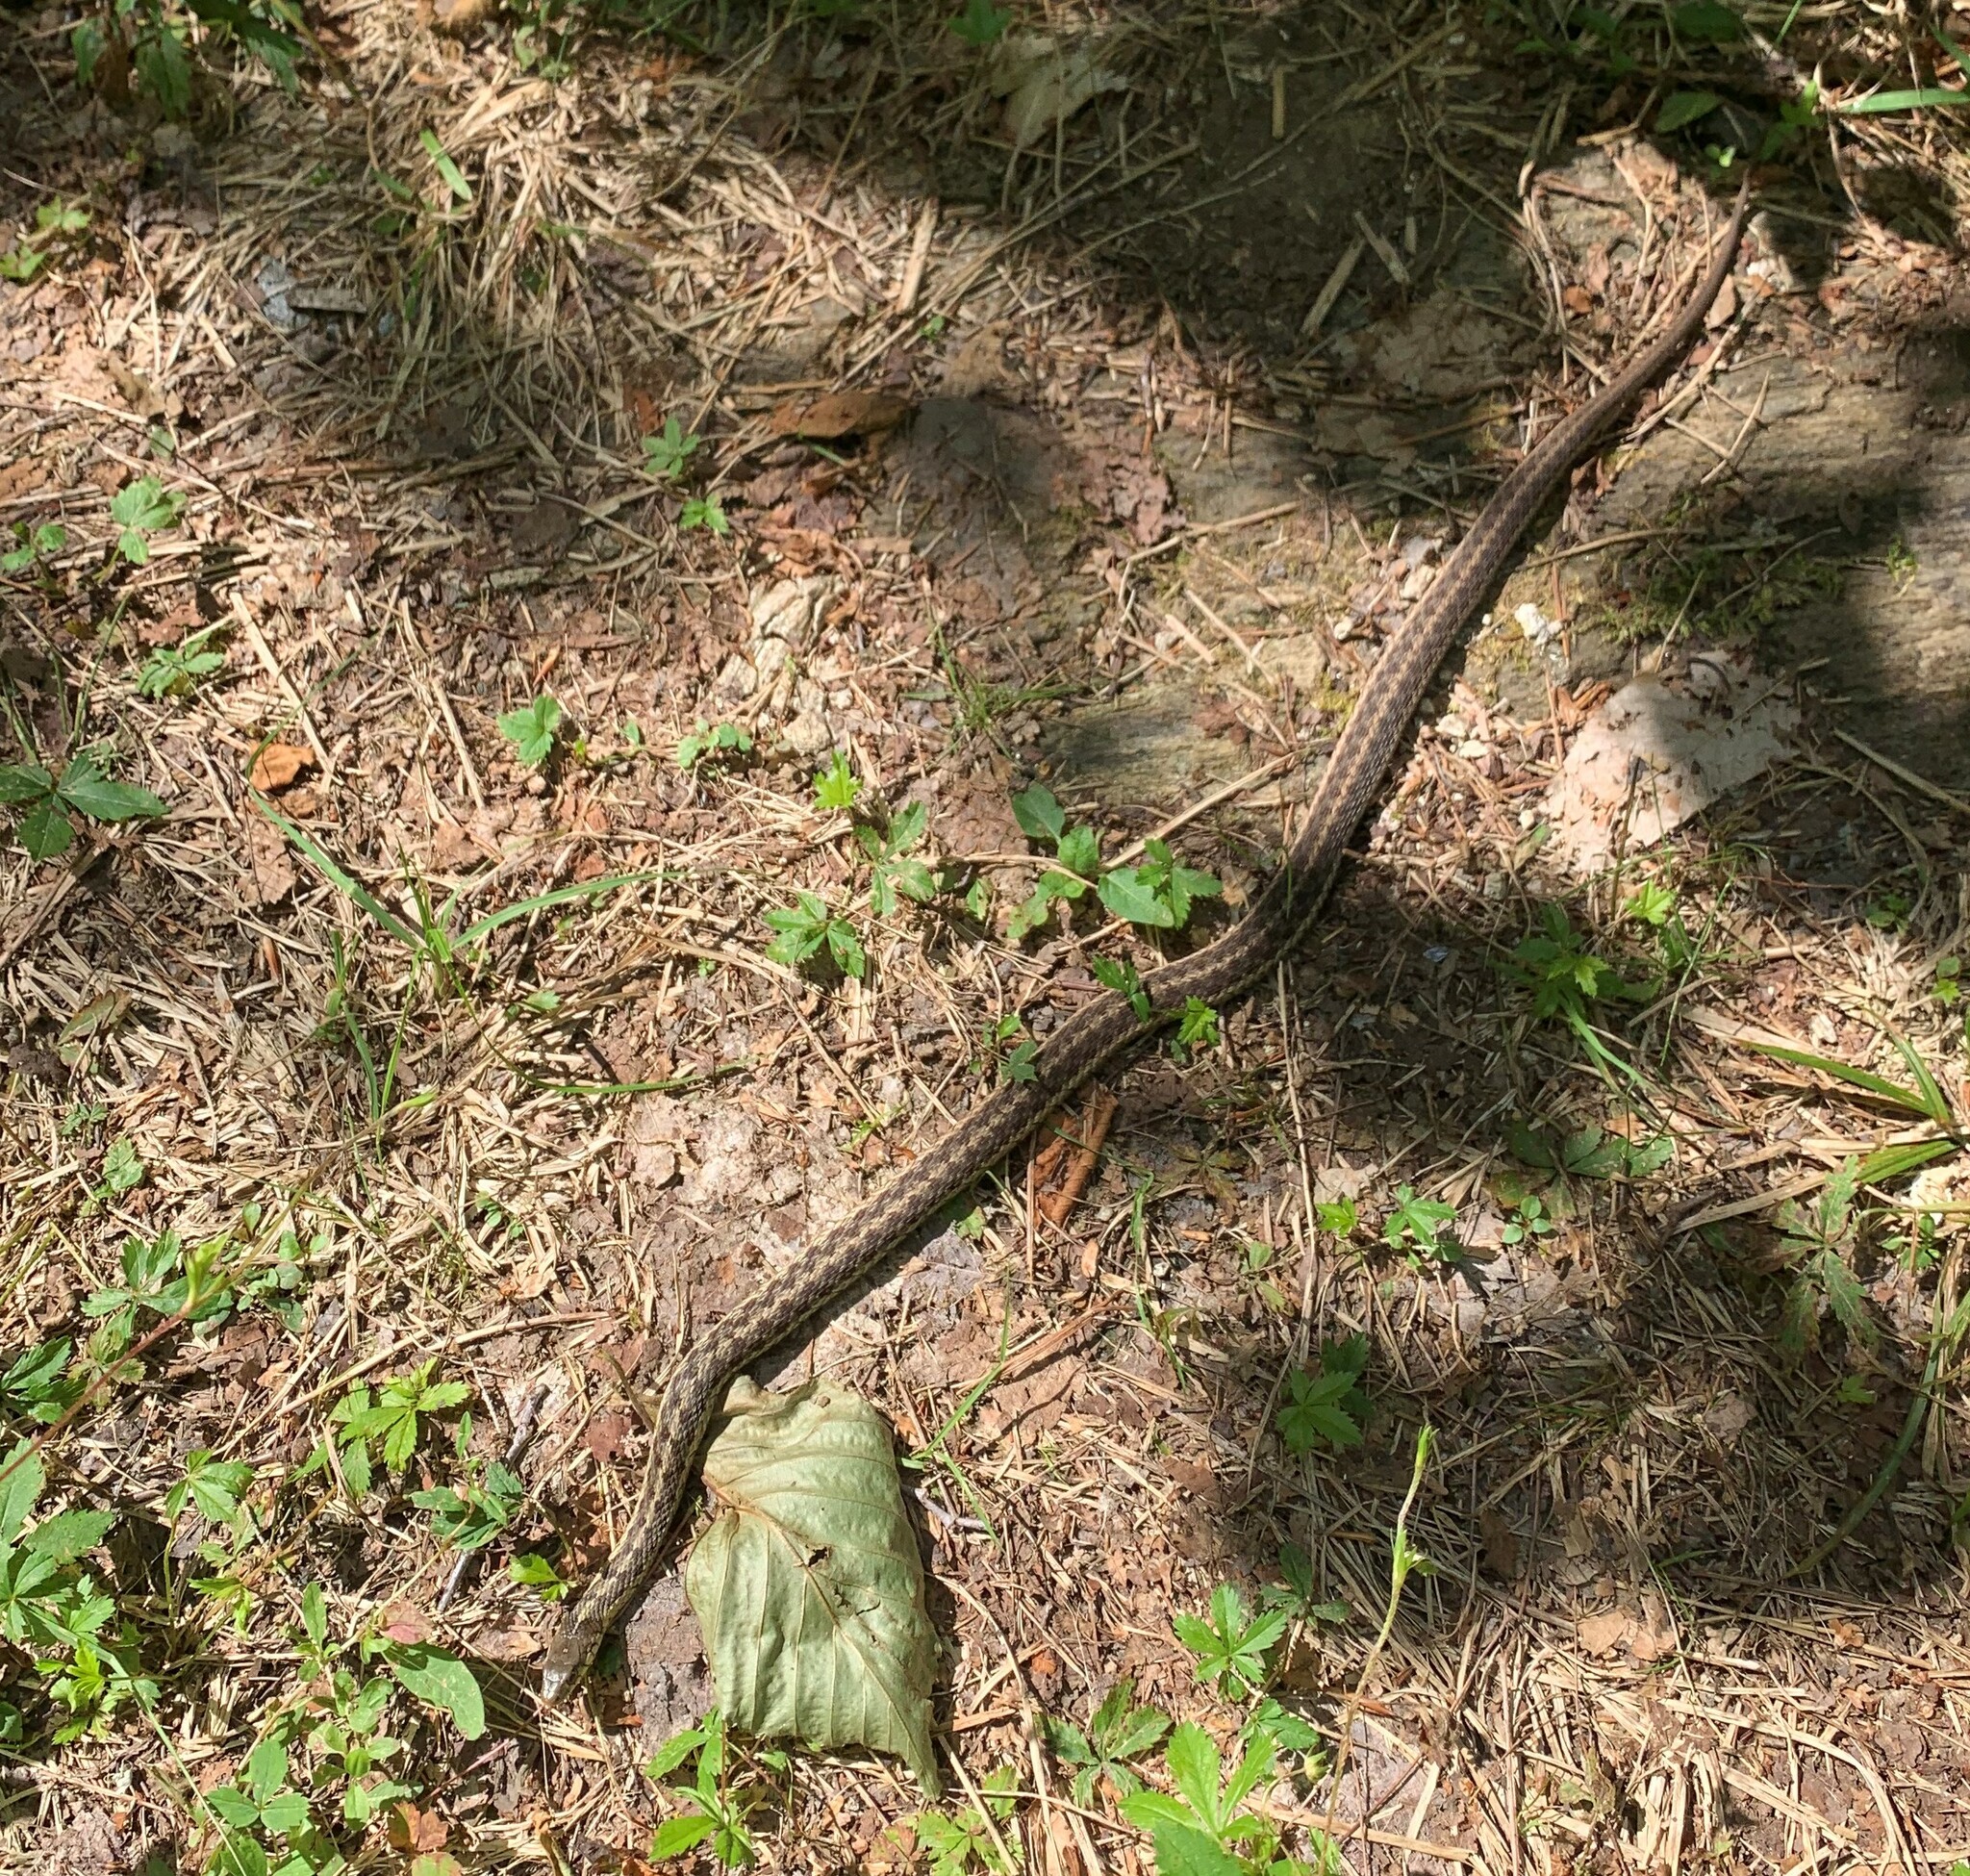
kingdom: Animalia
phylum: Chordata
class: Squamata
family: Colubridae
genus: Thamnophis
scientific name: Thamnophis sirtalis
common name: Common garter snake
